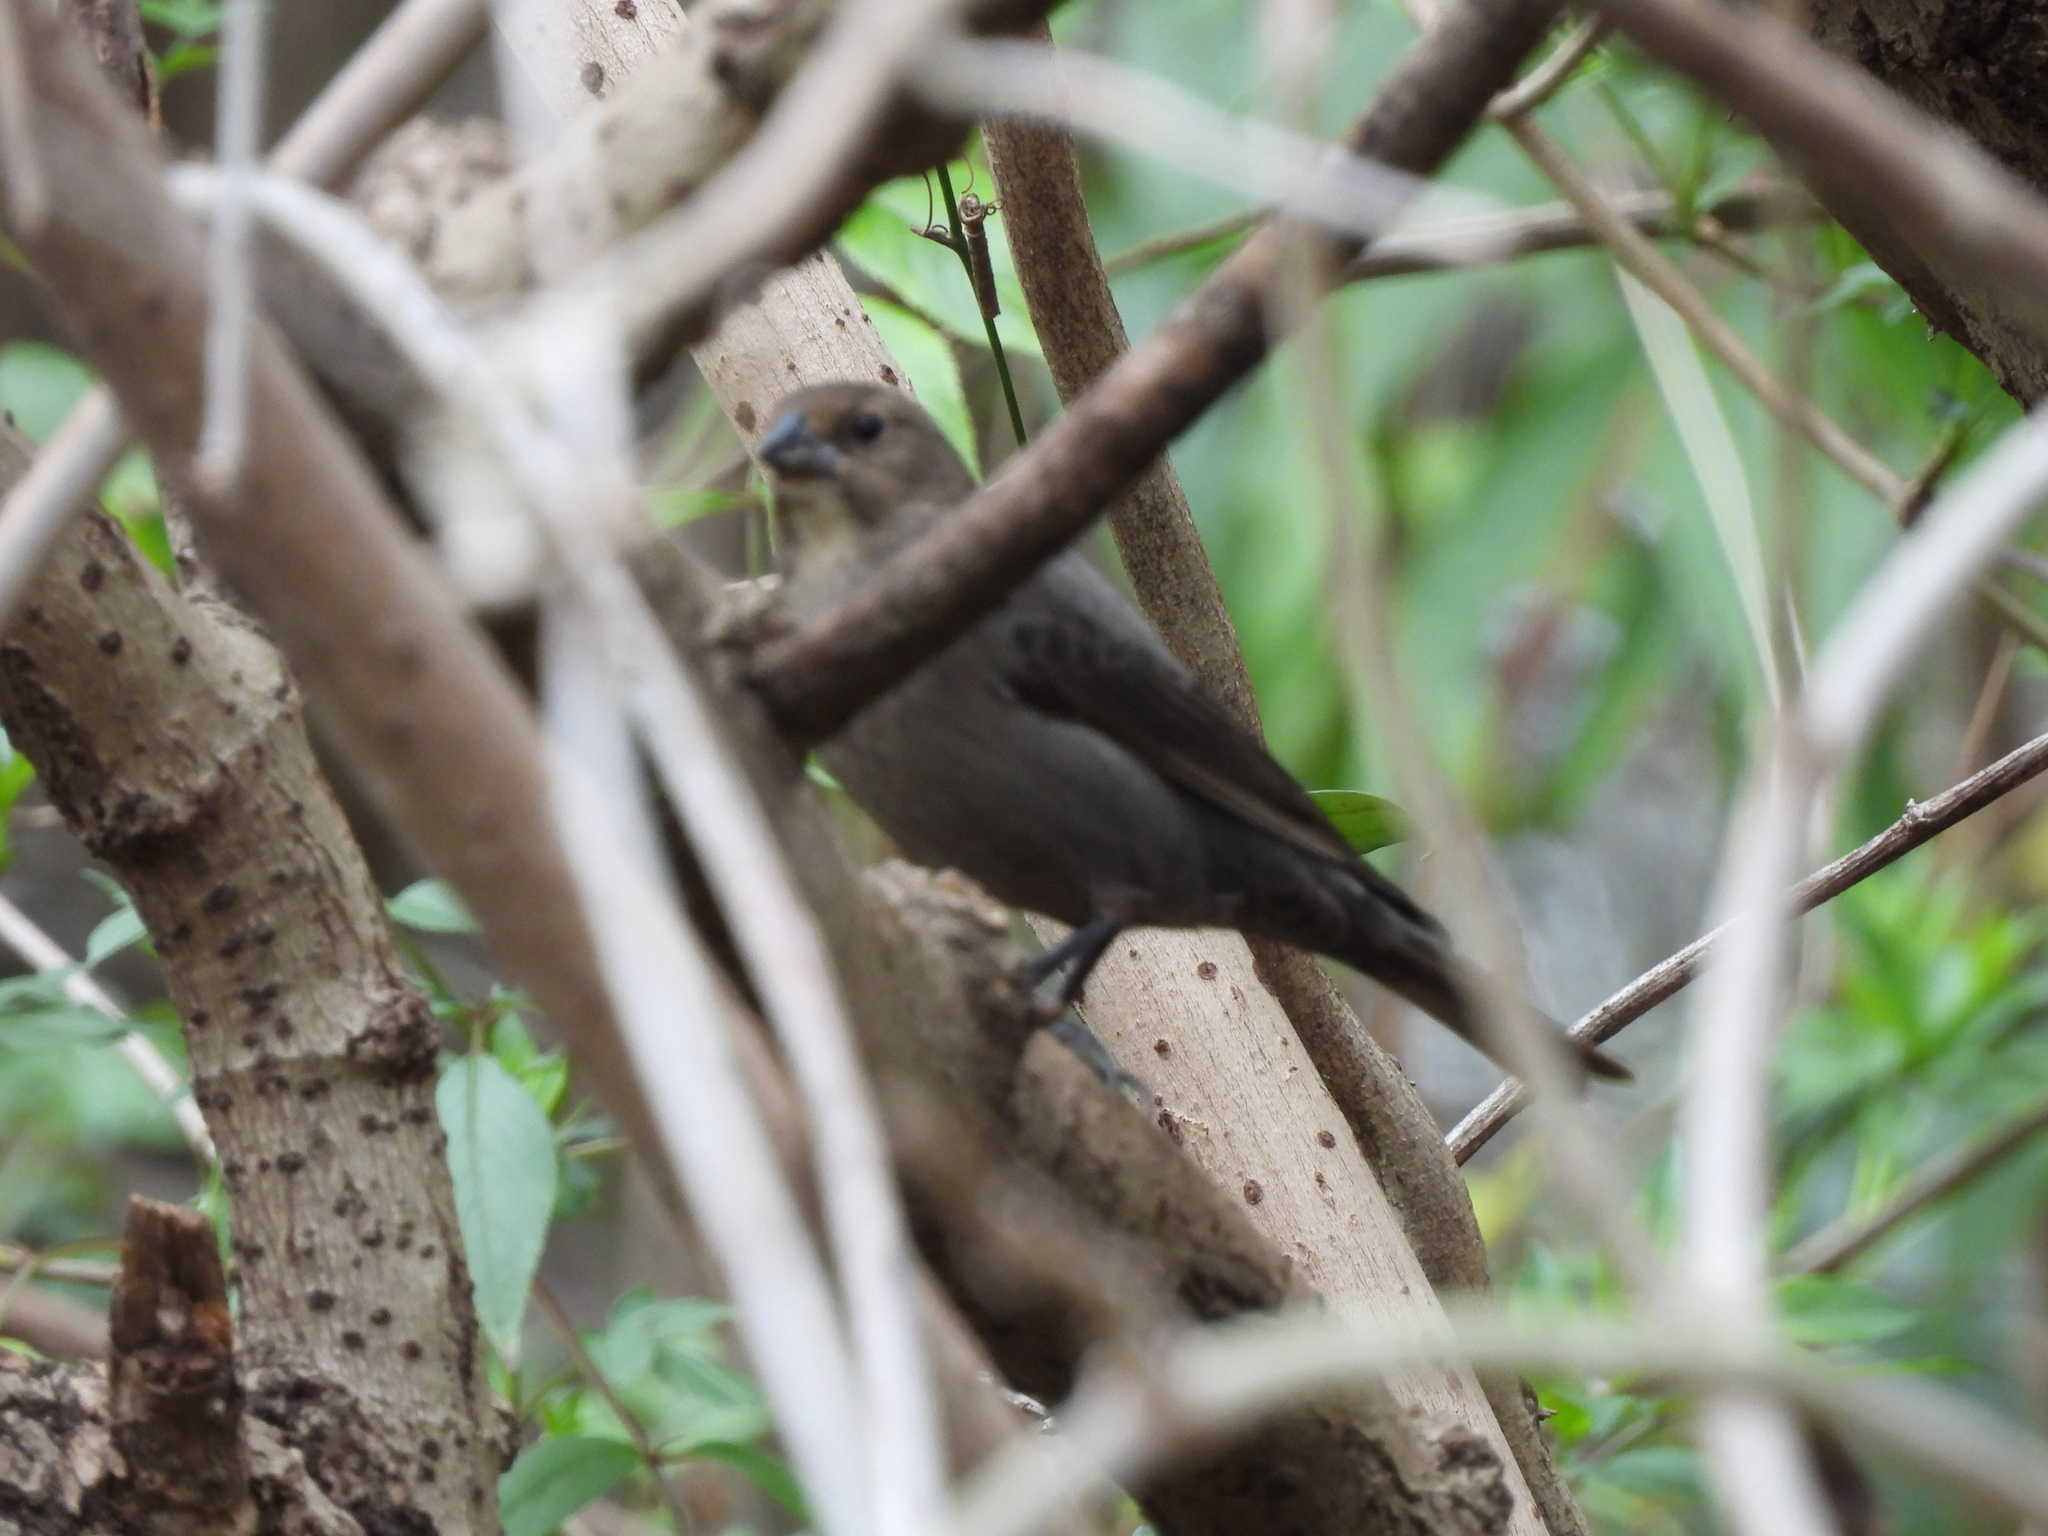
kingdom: Animalia
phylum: Chordata
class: Aves
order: Passeriformes
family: Icteridae
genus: Molothrus
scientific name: Molothrus ater
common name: Brown-headed cowbird
